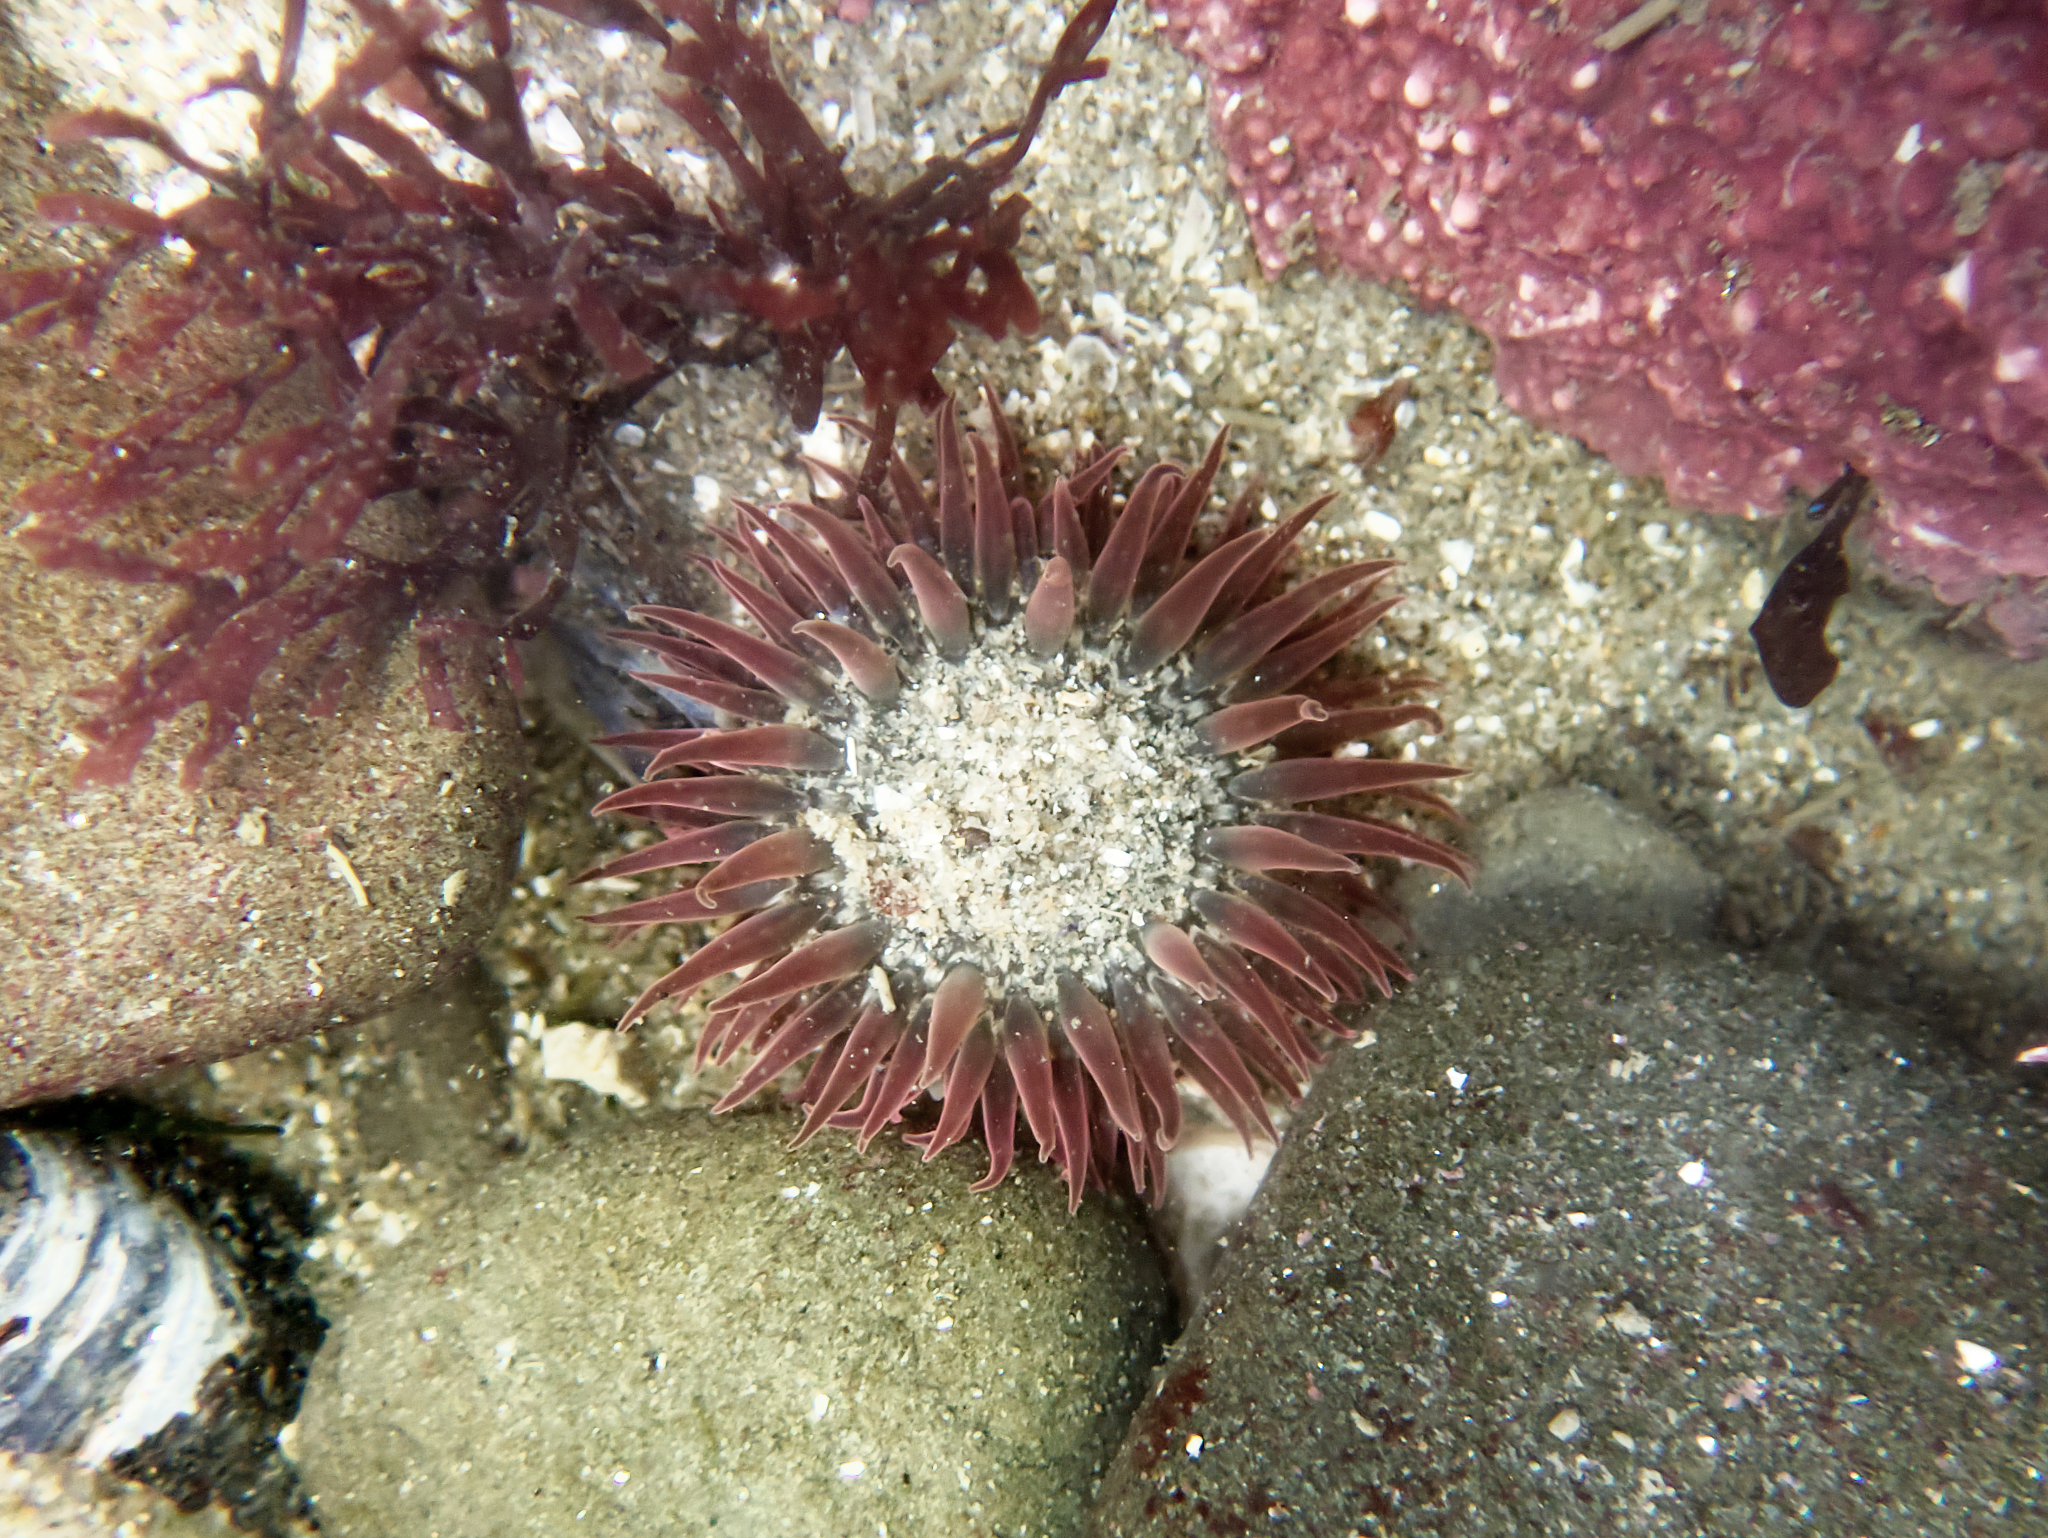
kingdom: Animalia
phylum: Cnidaria
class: Anthozoa
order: Actiniaria
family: Actiniidae
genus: Anthopleura
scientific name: Anthopleura artemisia
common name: Buried sea anemone
